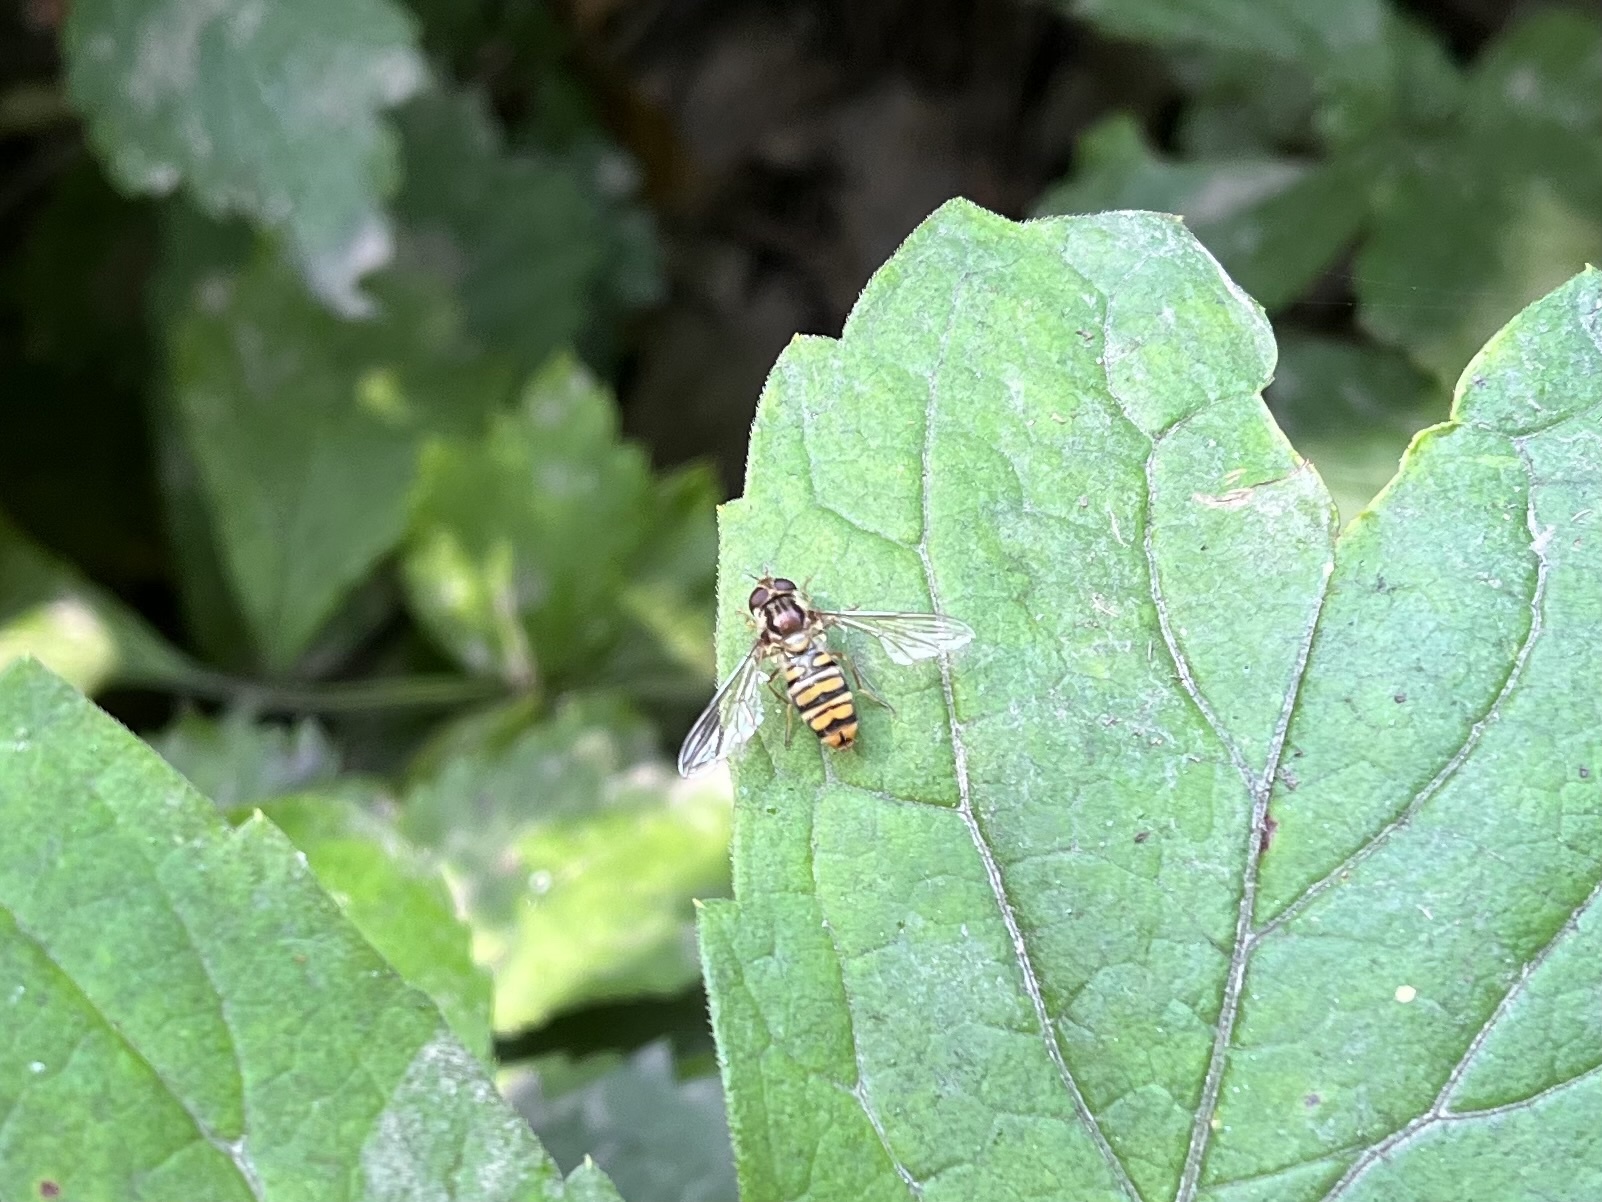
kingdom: Animalia
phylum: Arthropoda
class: Insecta
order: Diptera
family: Syrphidae
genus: Episyrphus
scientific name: Episyrphus balteatus
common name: Marmalade hoverfly
